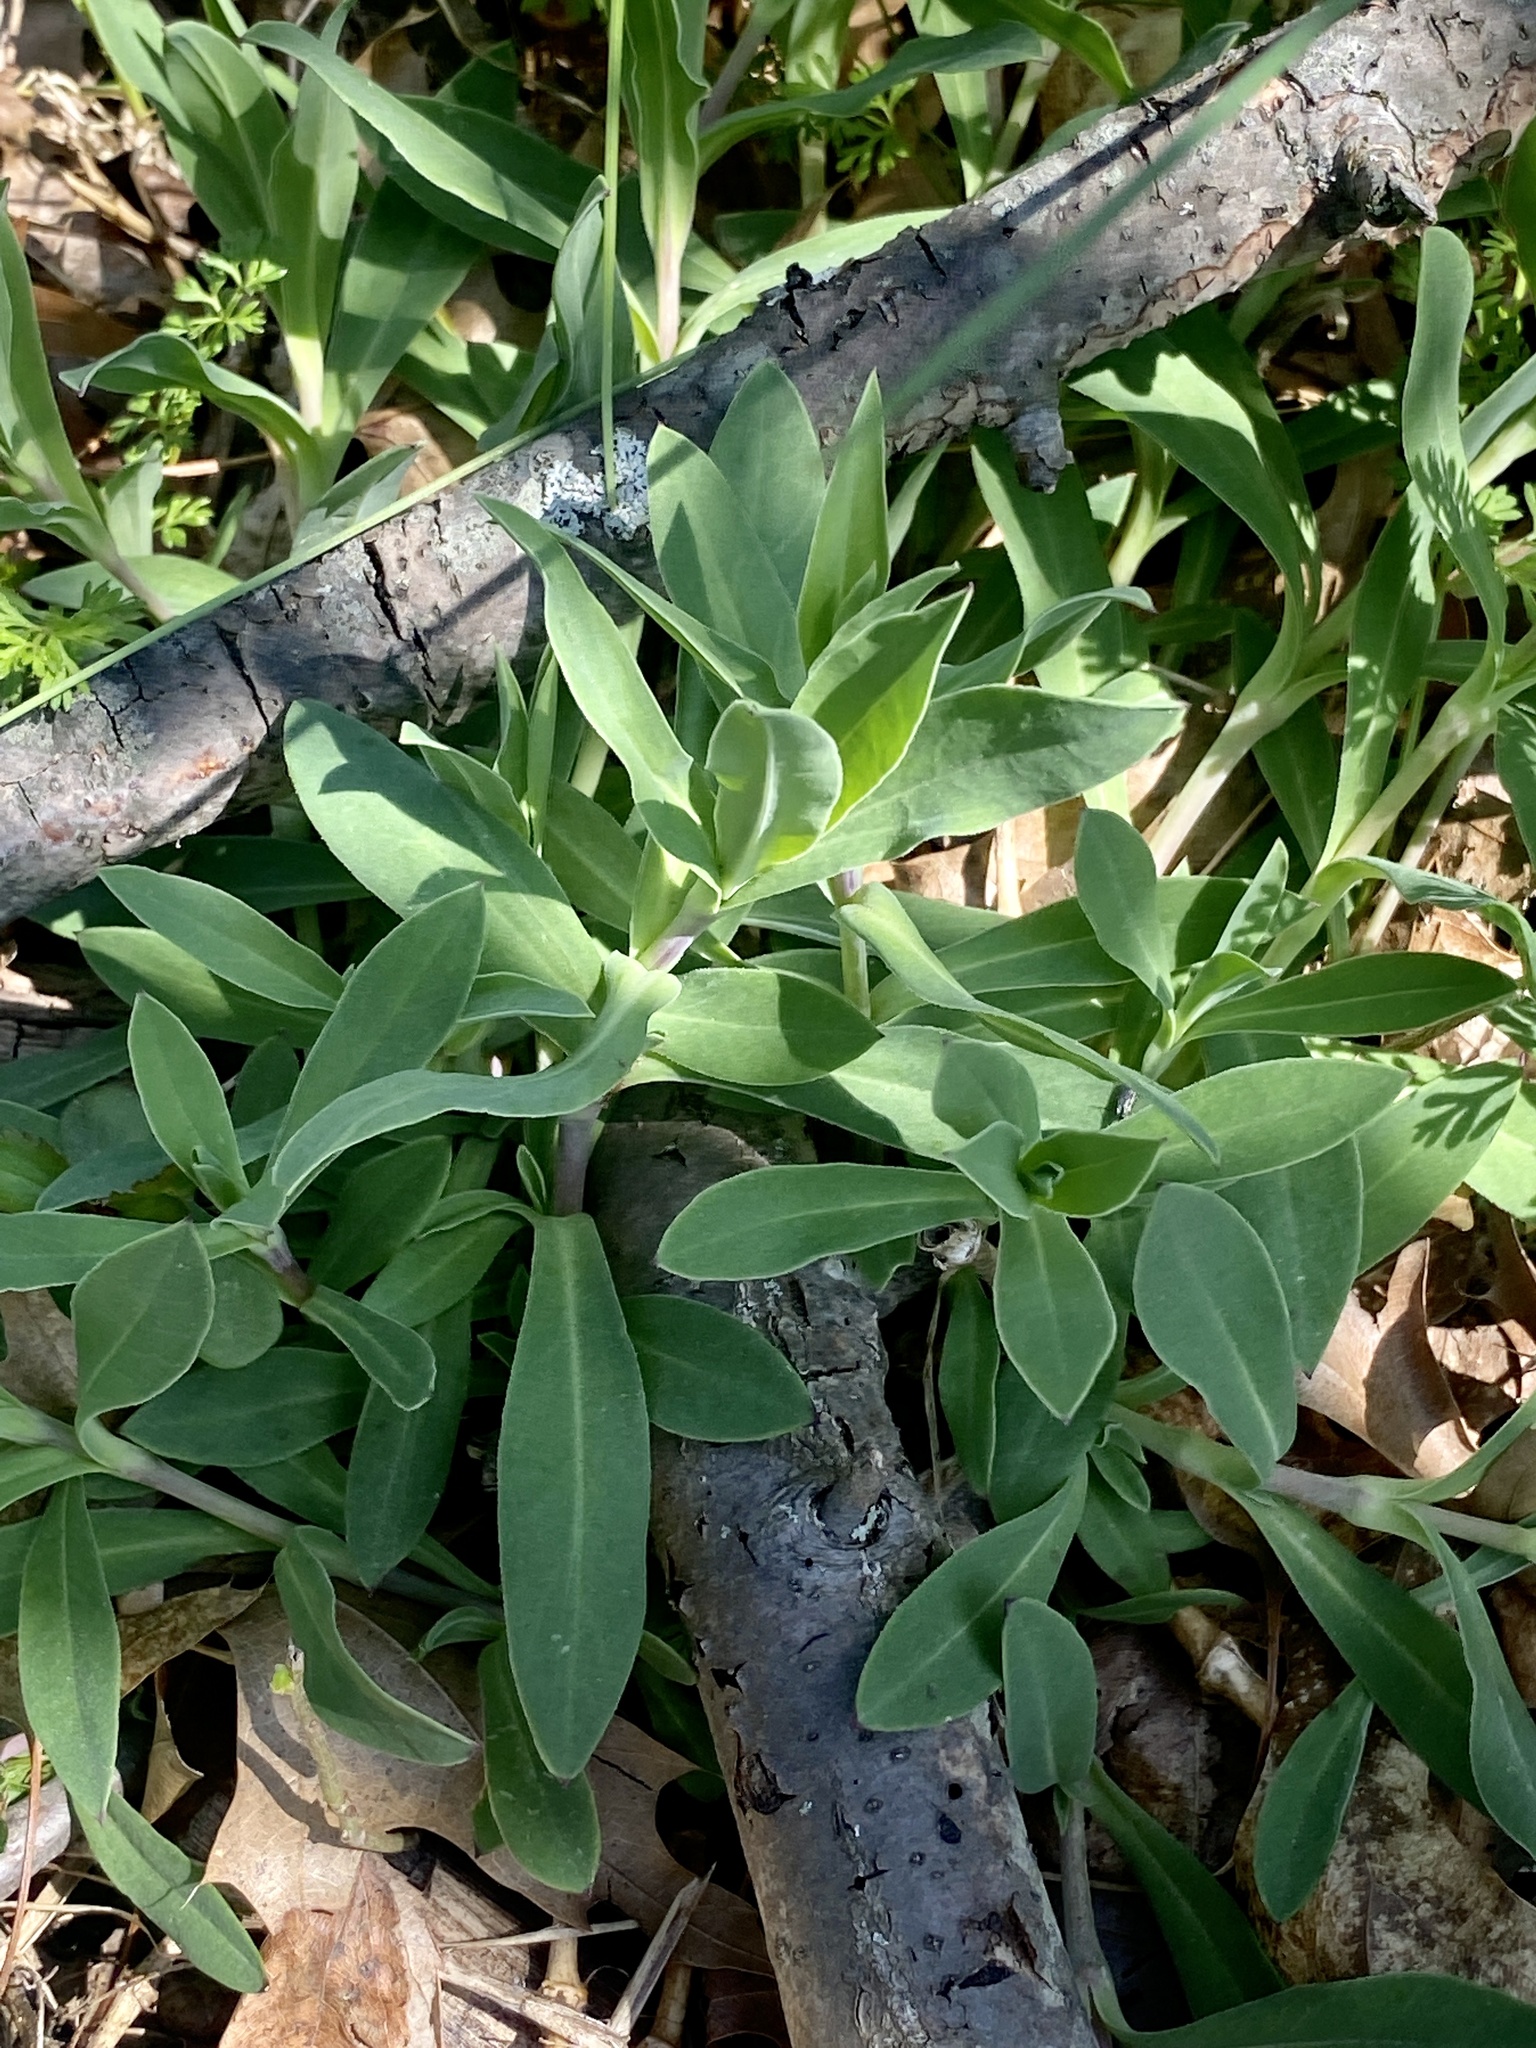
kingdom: Plantae
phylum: Tracheophyta
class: Magnoliopsida
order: Caryophyllales
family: Caryophyllaceae
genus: Silene
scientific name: Silene vulgaris
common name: Bladder campion
